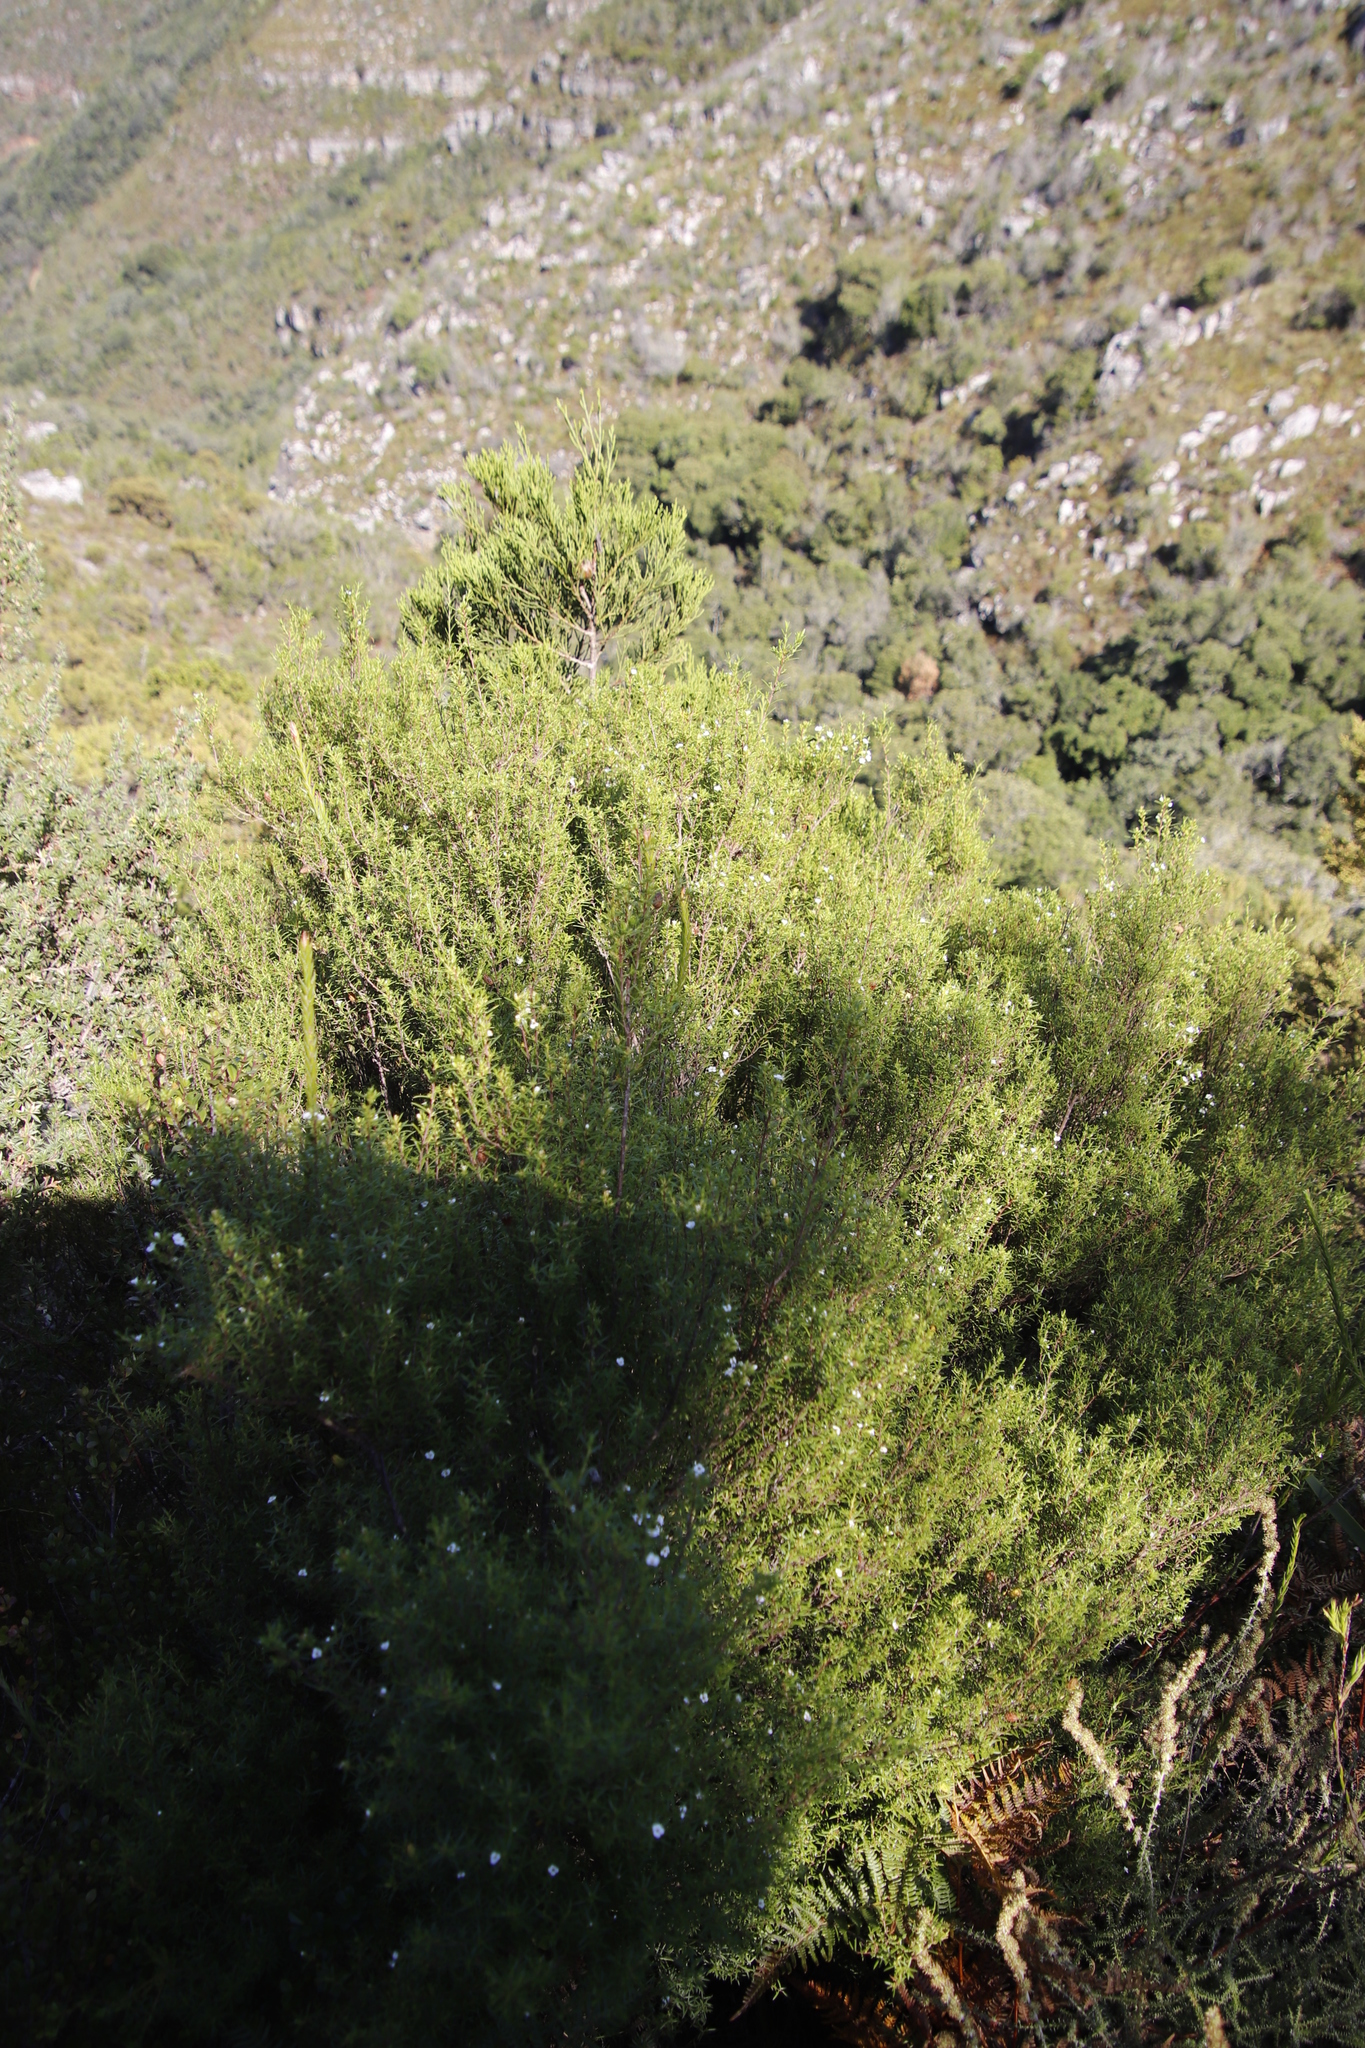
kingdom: Plantae
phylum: Tracheophyta
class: Magnoliopsida
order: Sapindales
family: Rutaceae
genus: Coleonema
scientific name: Coleonema album
